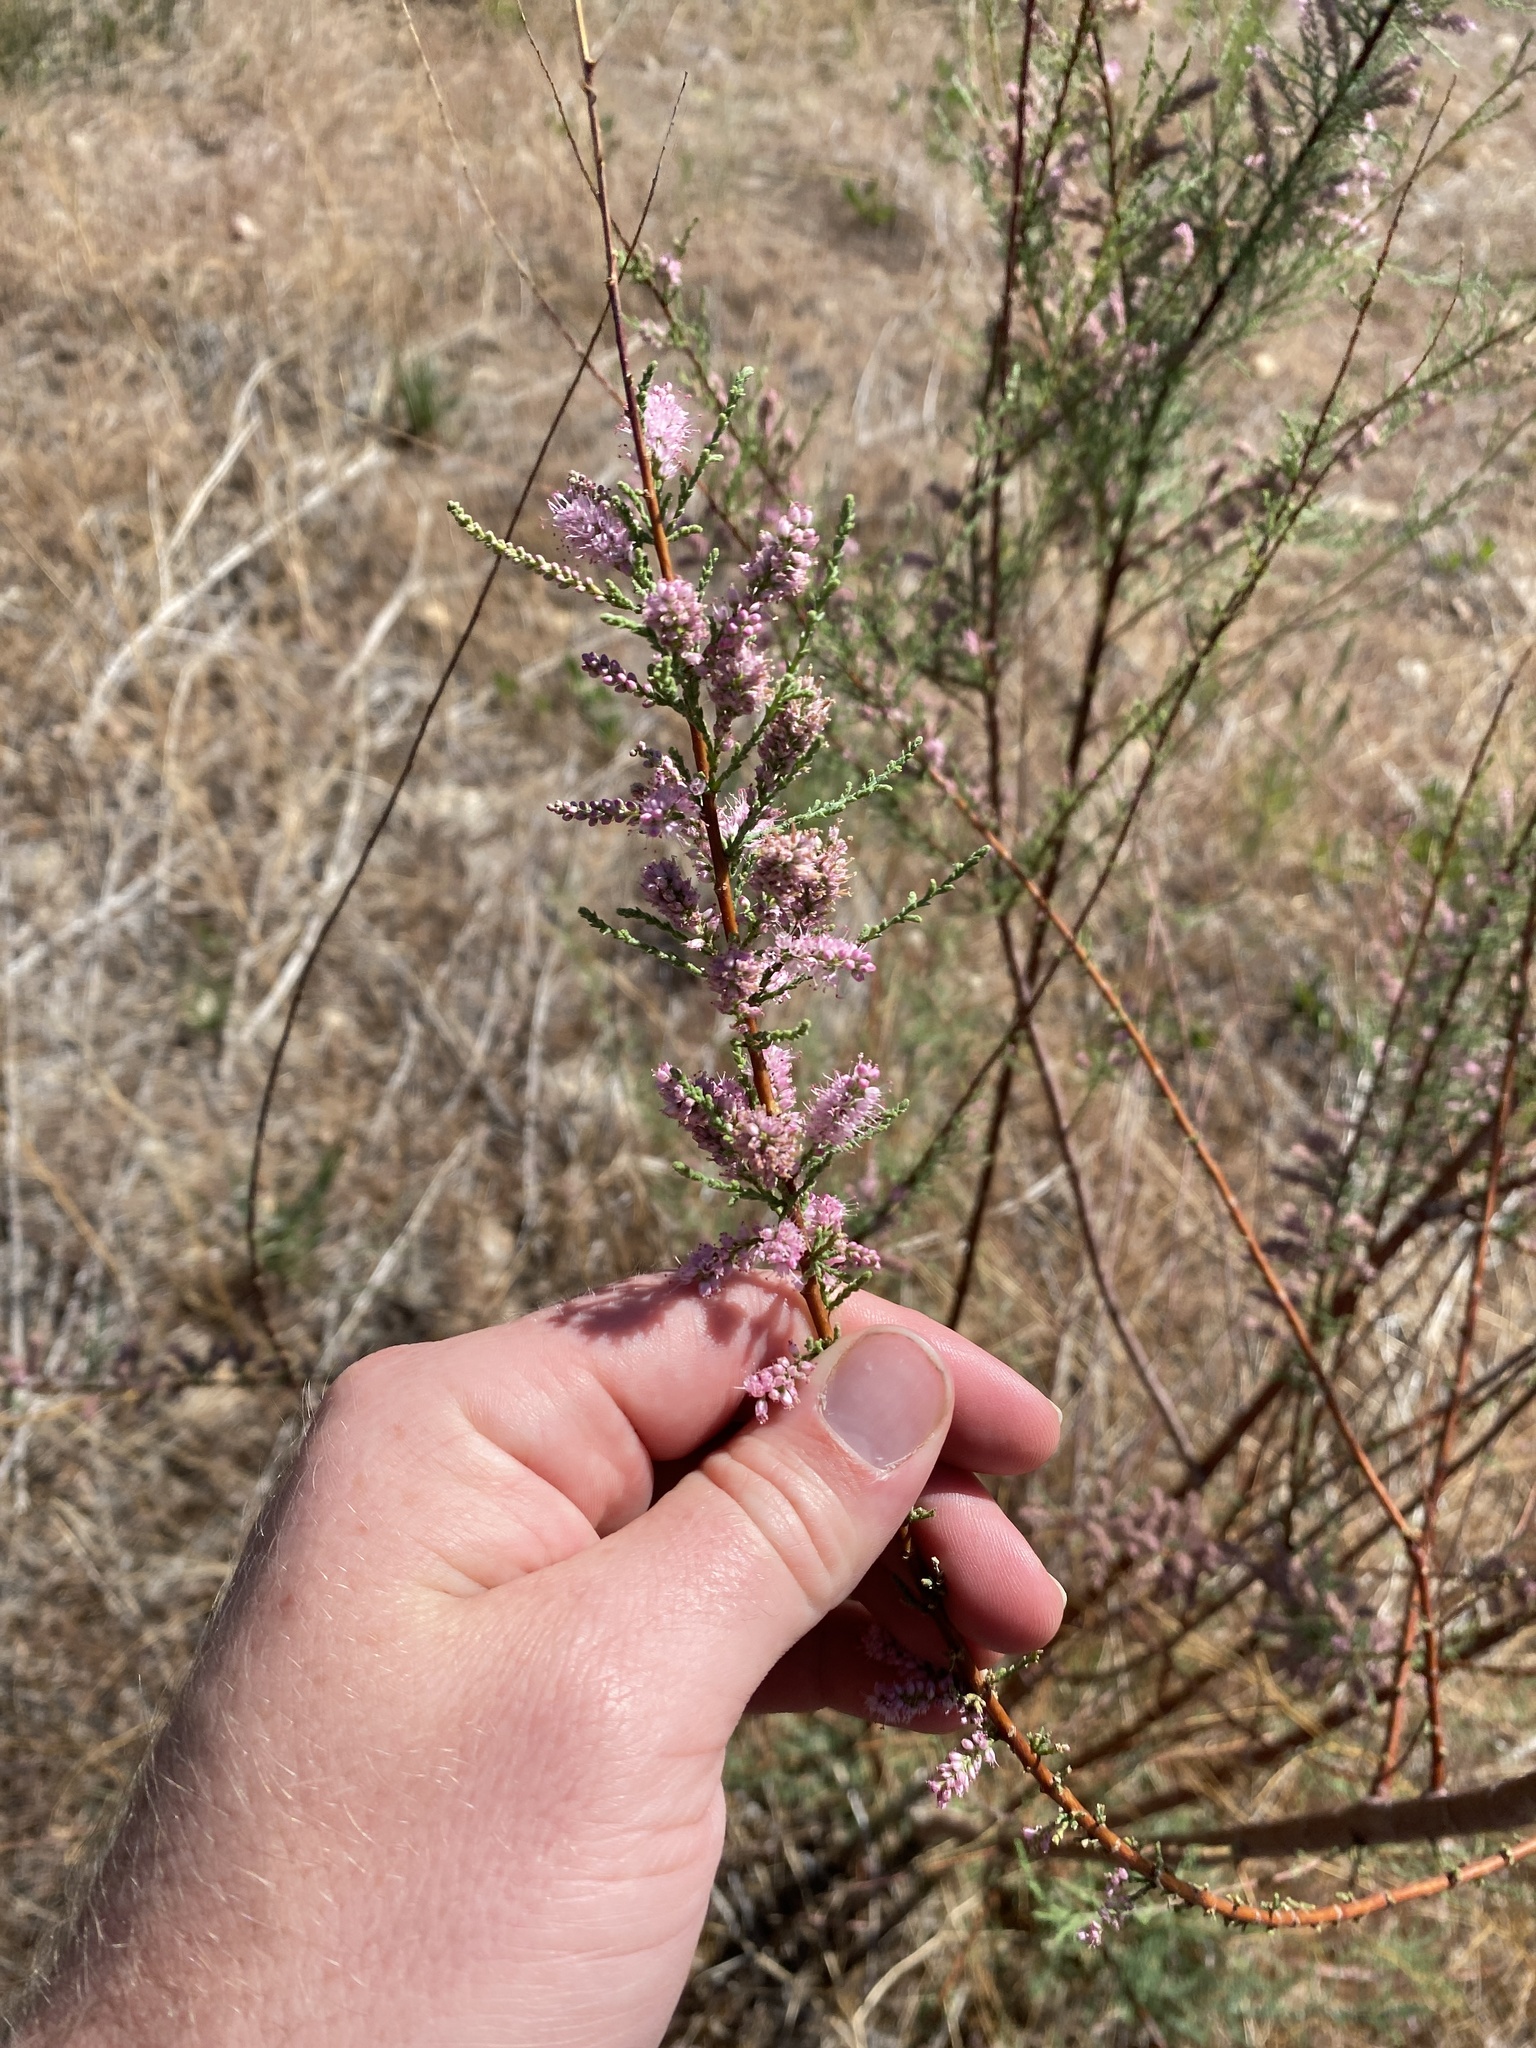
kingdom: Plantae
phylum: Tracheophyta
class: Magnoliopsida
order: Caryophyllales
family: Tamaricaceae
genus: Tamarix
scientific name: Tamarix ramosissima
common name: Pink tamarisk
